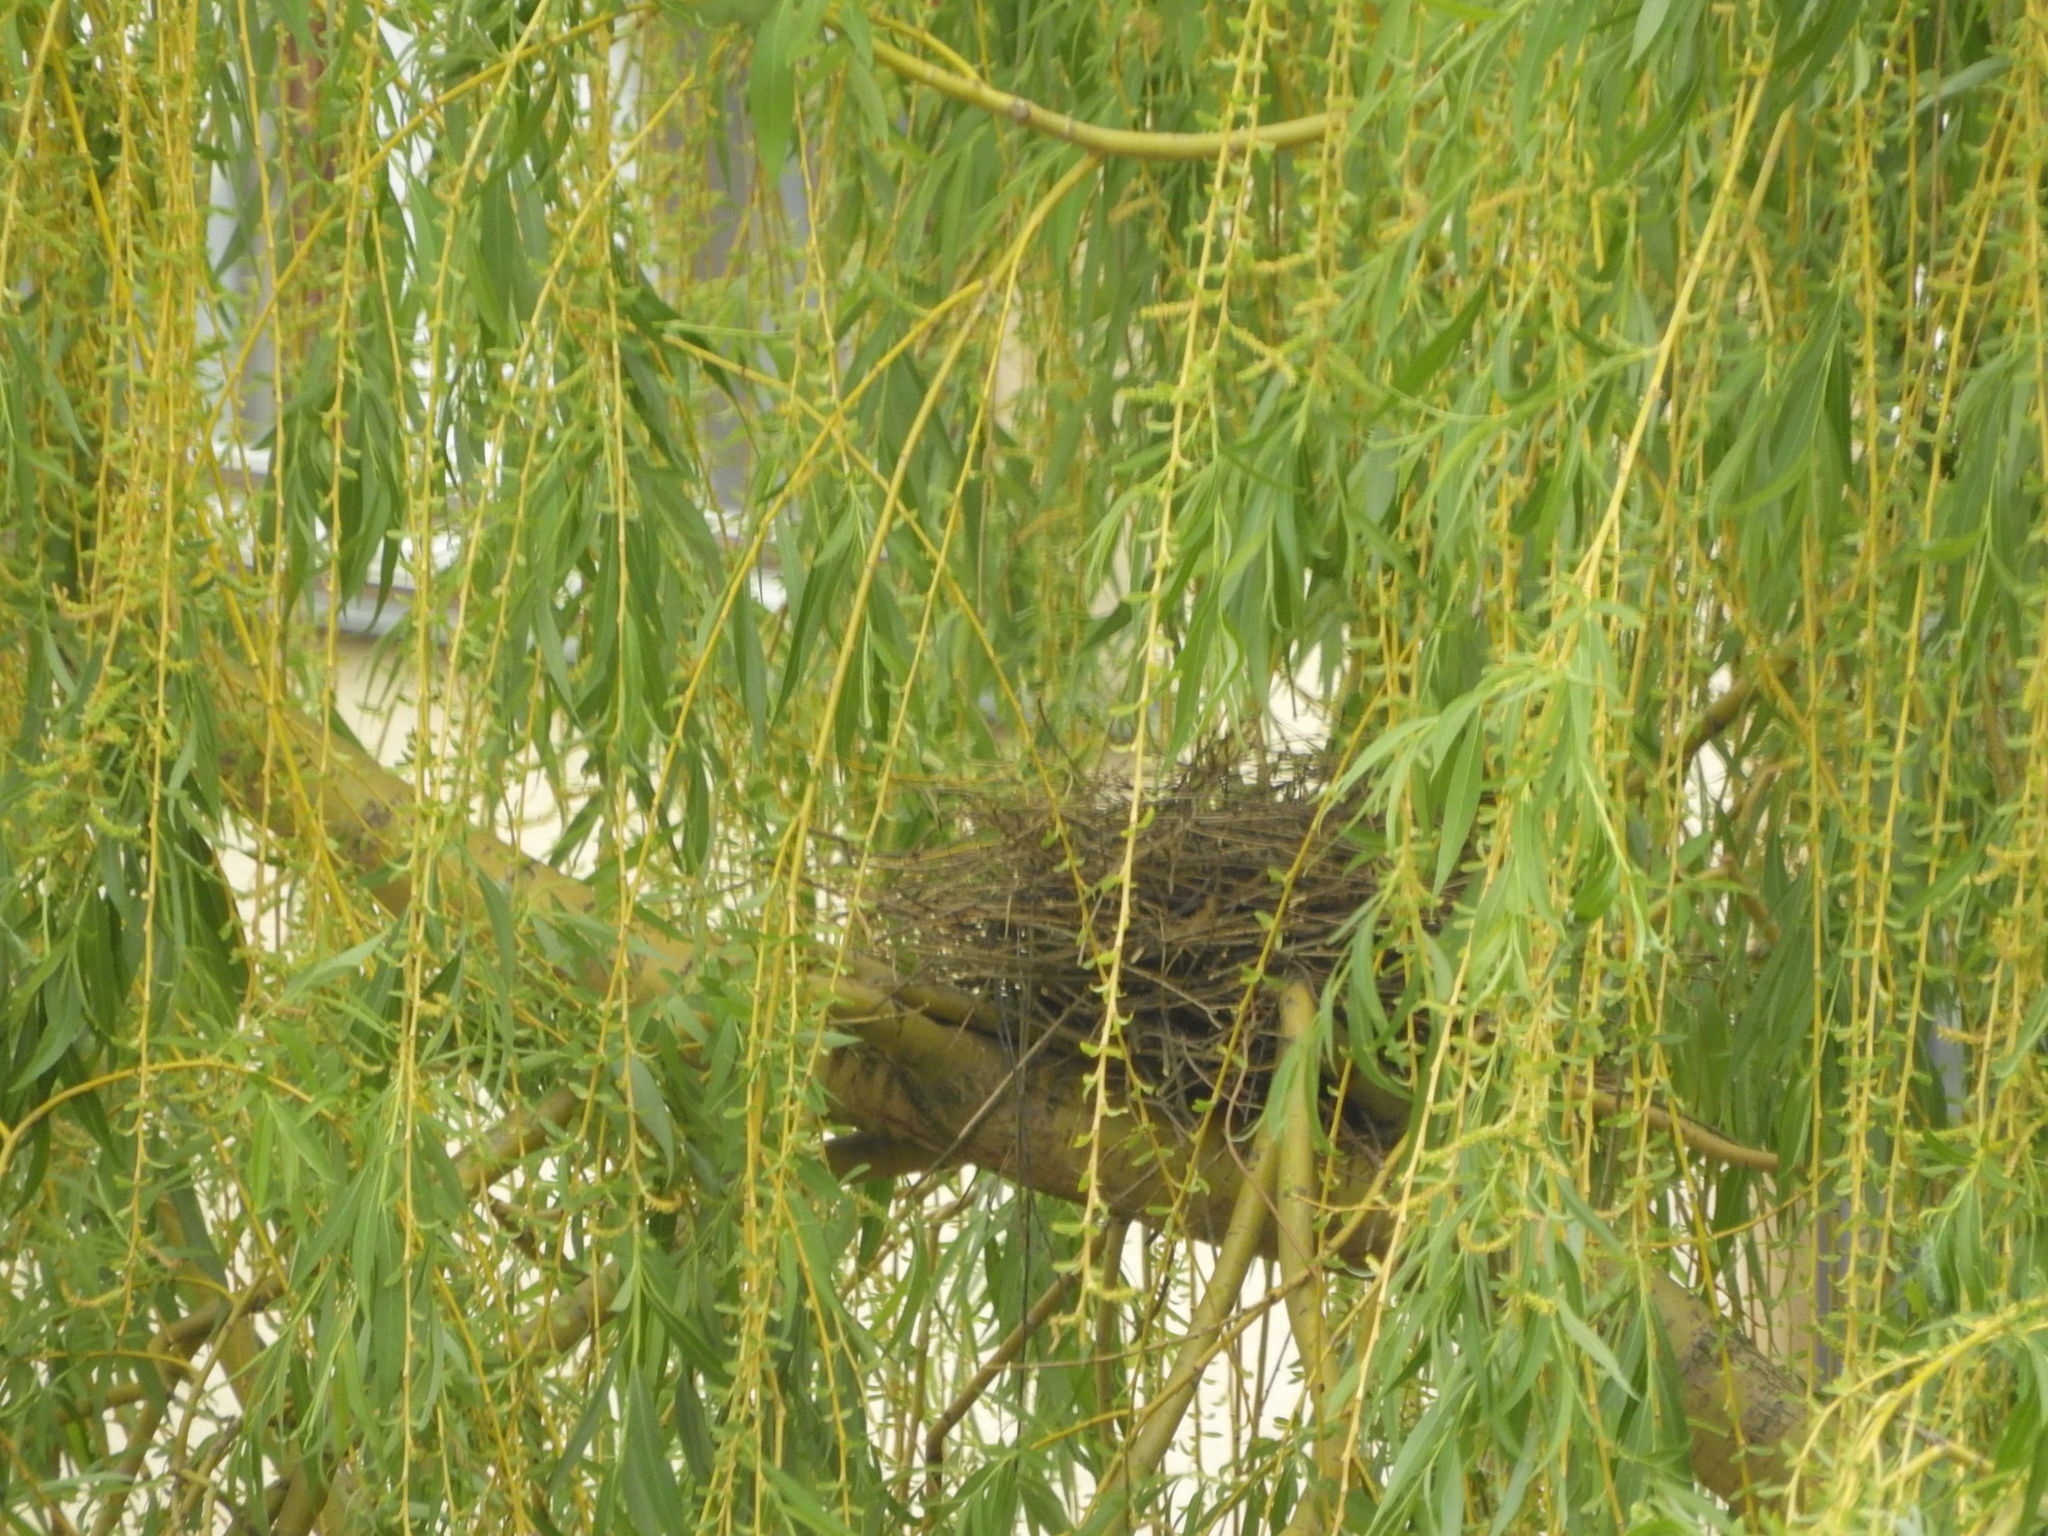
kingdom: Animalia
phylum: Chordata
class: Aves
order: Columbiformes
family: Columbidae
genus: Columba
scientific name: Columba palumbus
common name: Common wood pigeon
